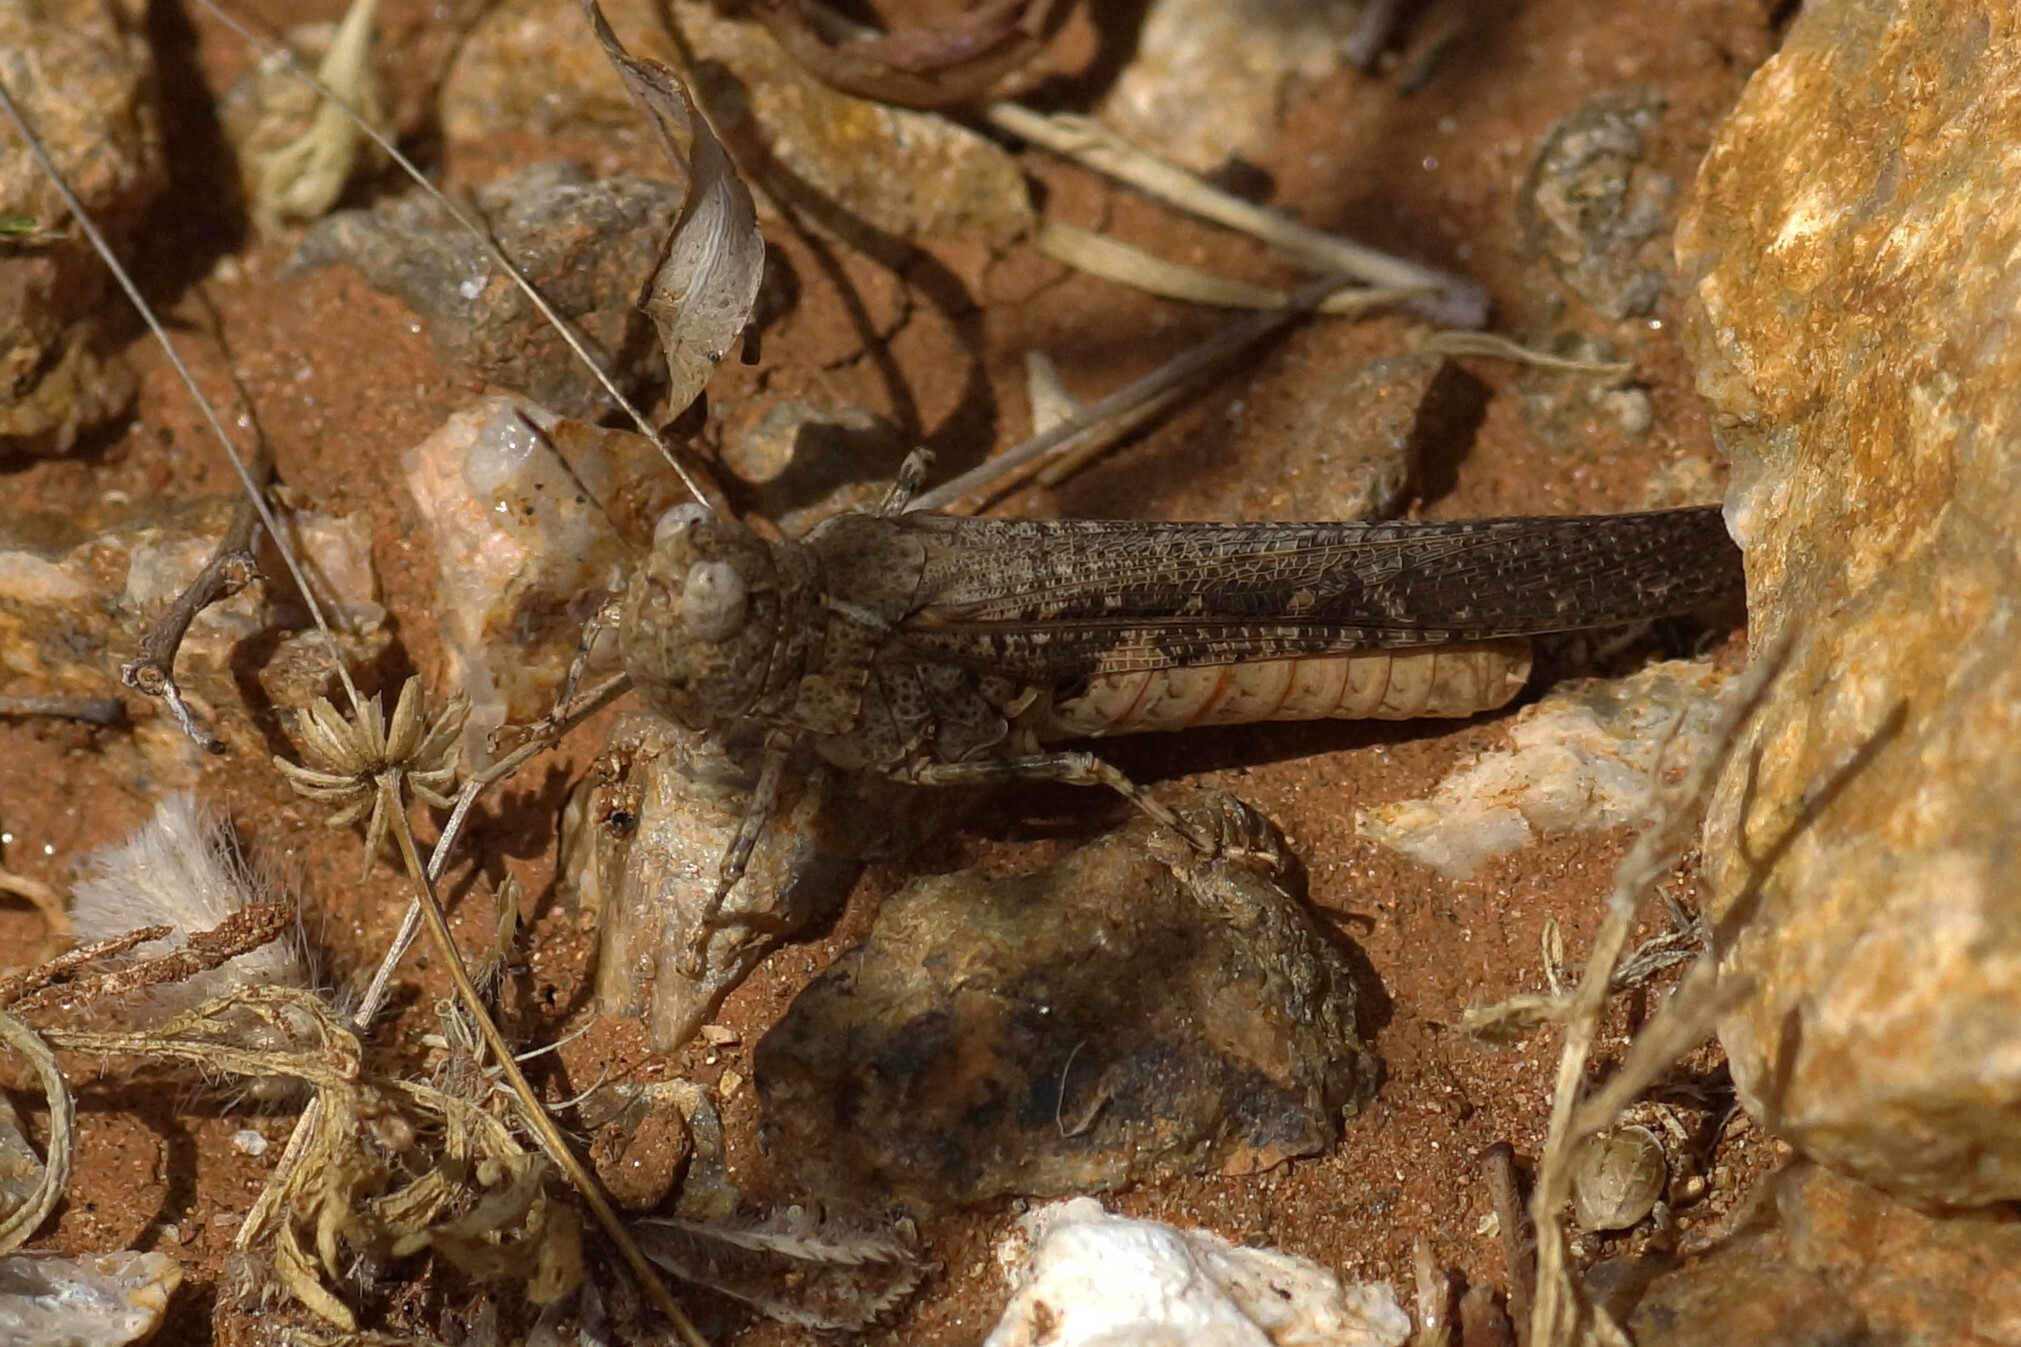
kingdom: Animalia
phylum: Arthropoda
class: Insecta
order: Orthoptera
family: Acrididae
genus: Pycnostictus
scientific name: Pycnostictus seriatus
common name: Common bandwing
